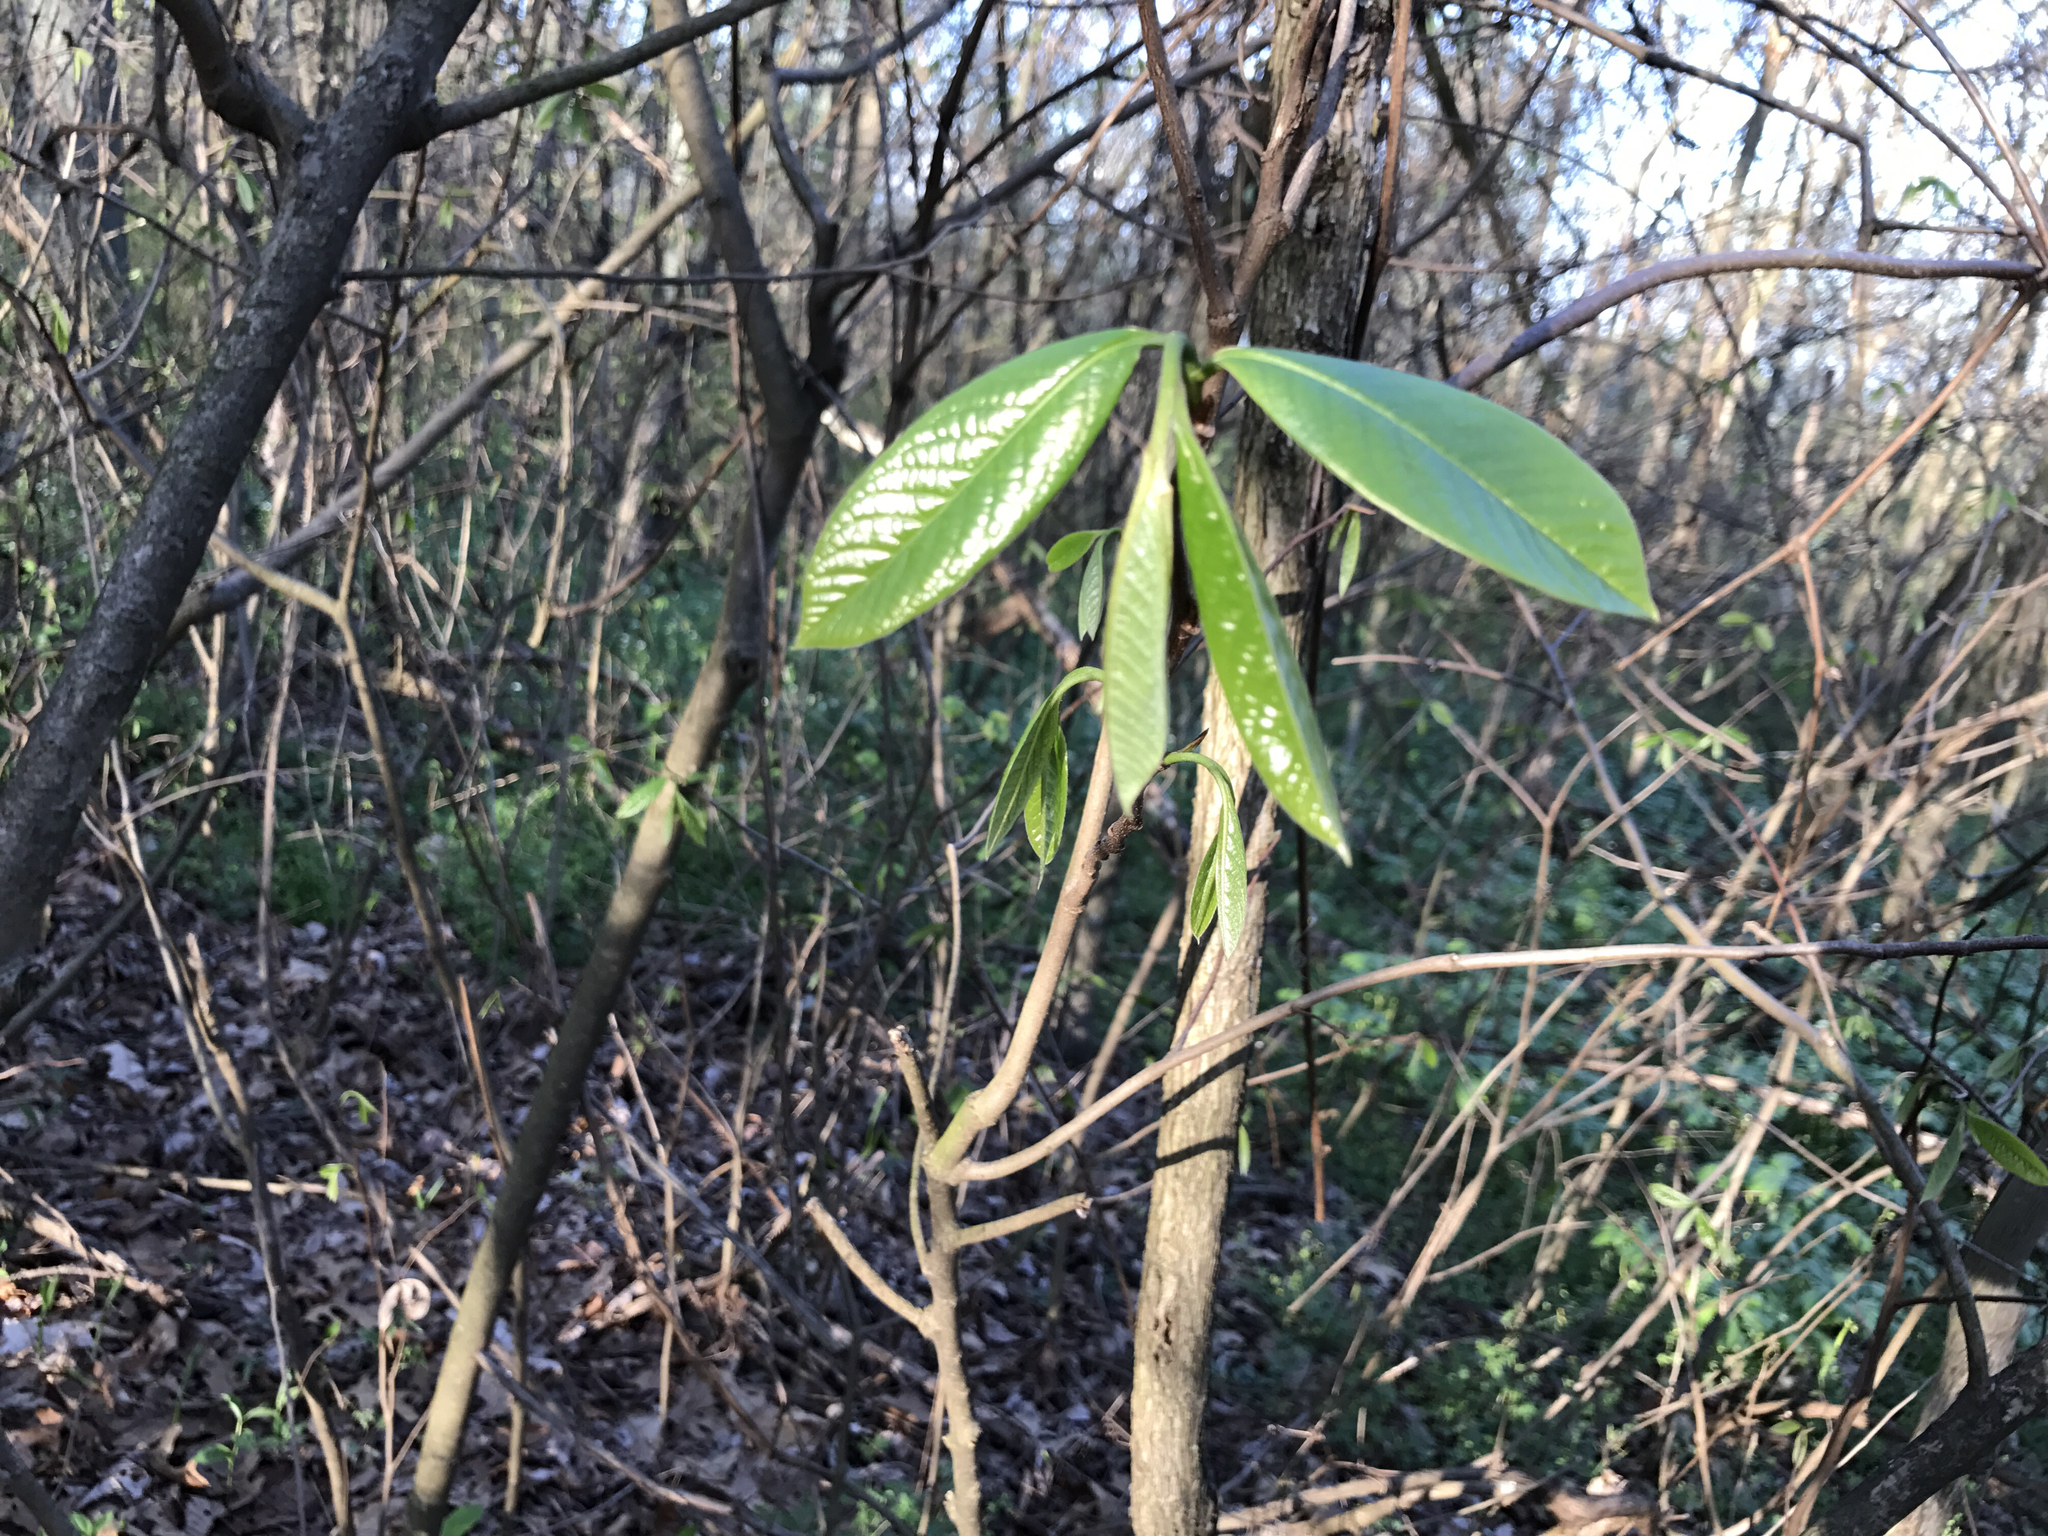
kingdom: Plantae
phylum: Tracheophyta
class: Magnoliopsida
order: Magnoliales
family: Annonaceae
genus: Asimina
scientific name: Asimina triloba
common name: Dog-banana
